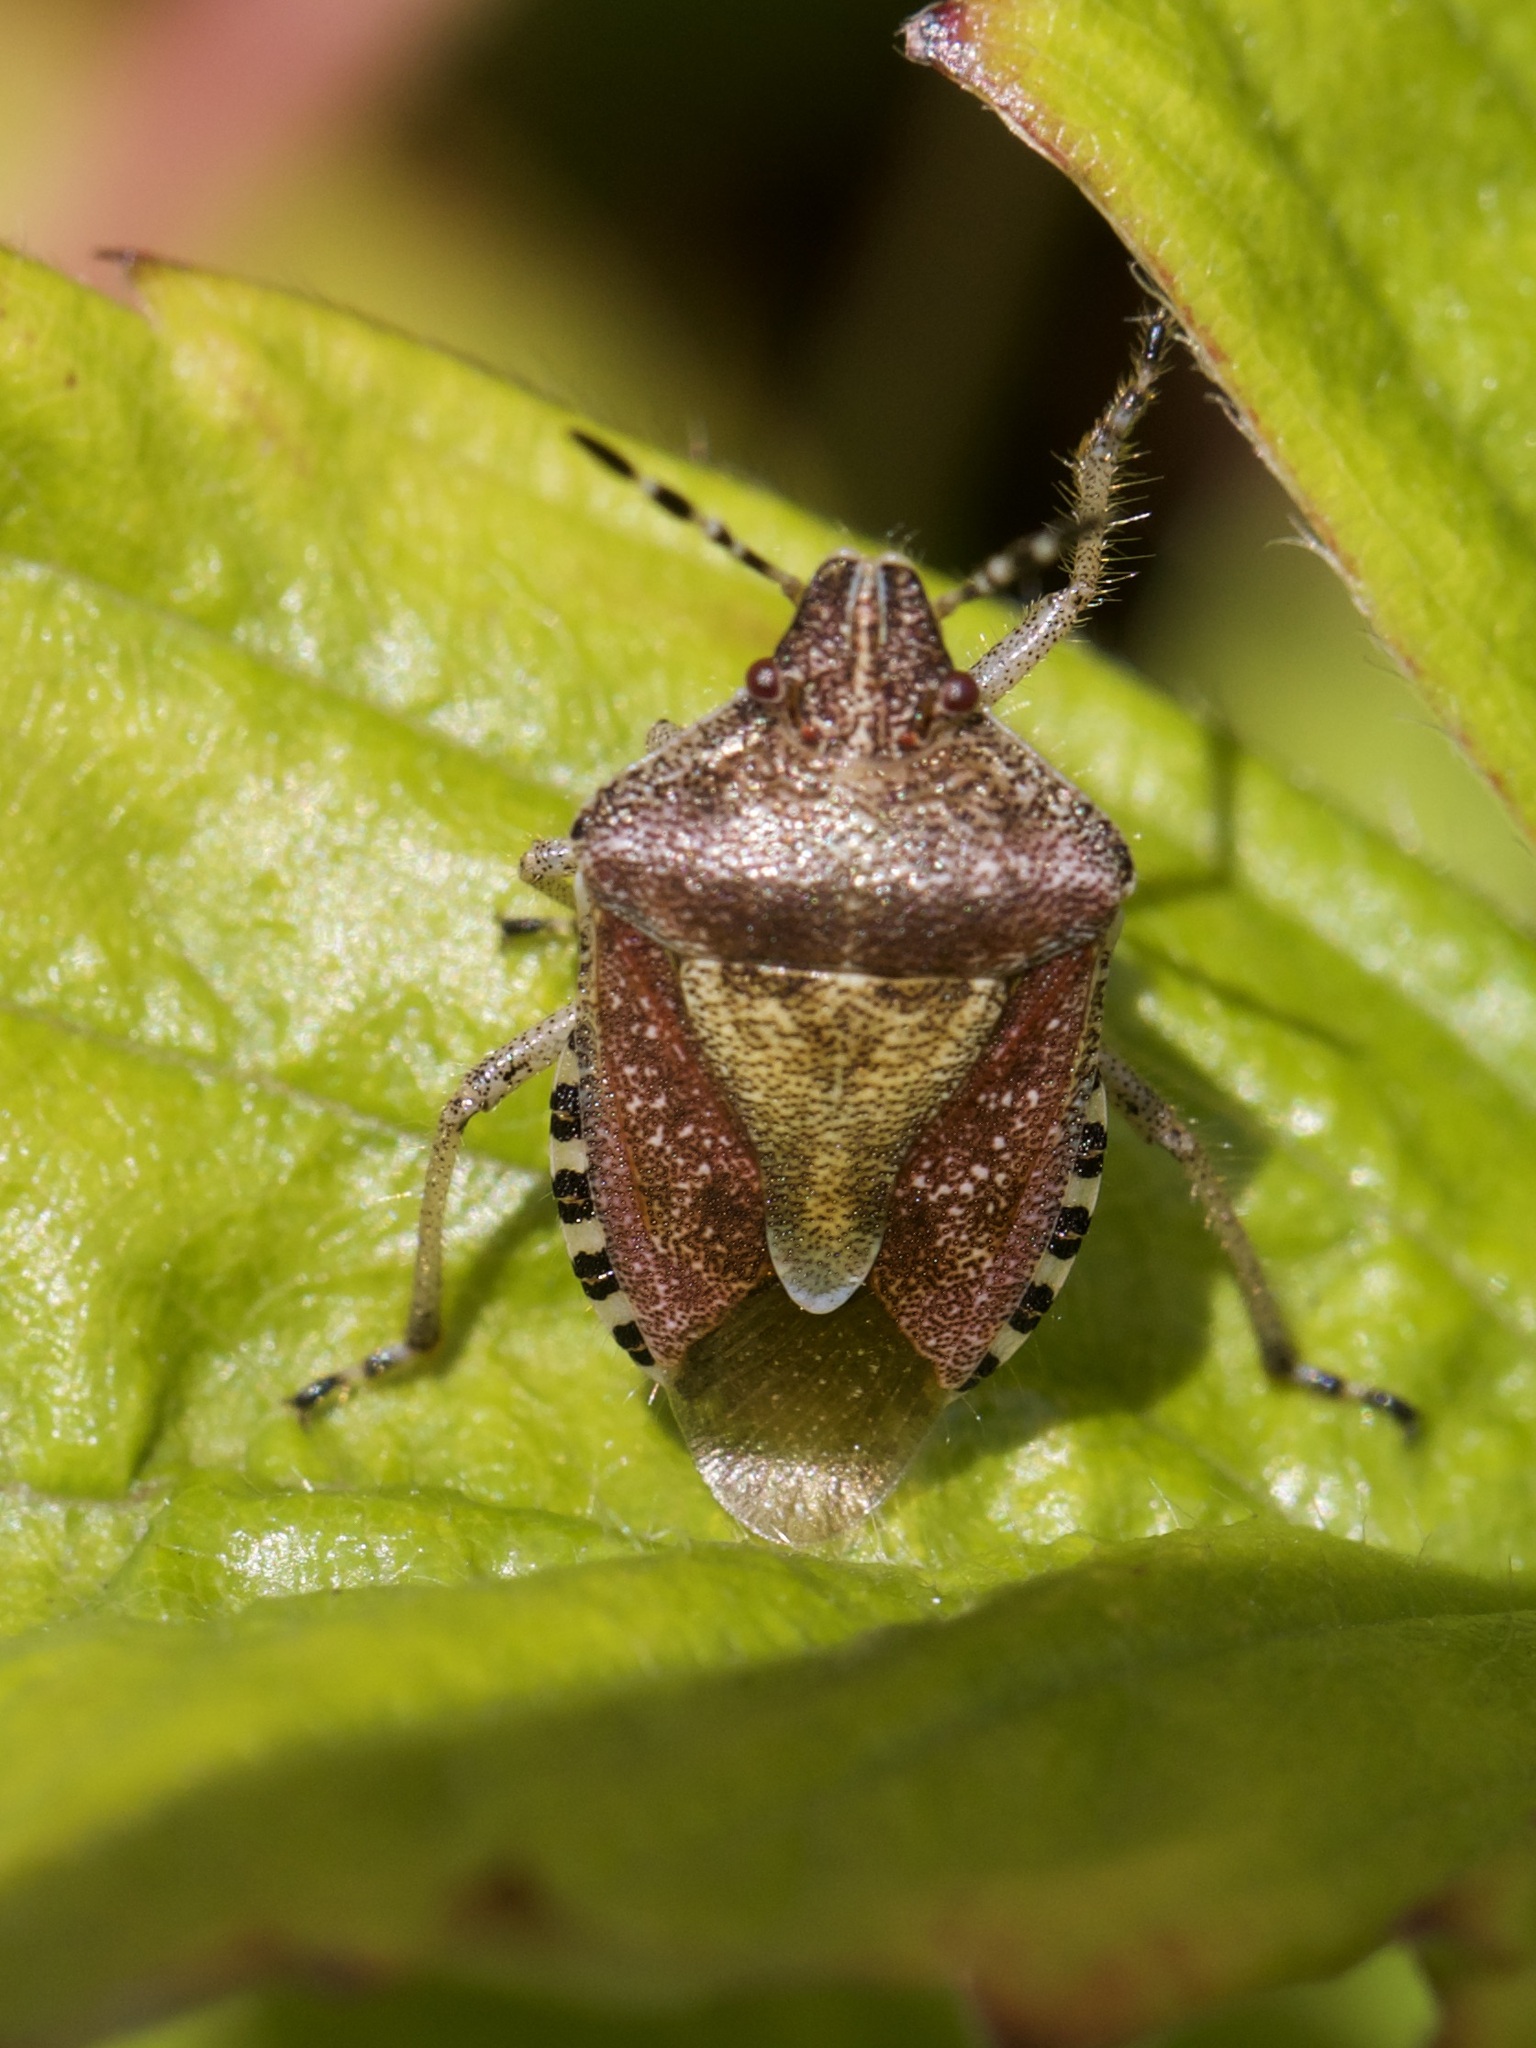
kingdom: Animalia
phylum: Arthropoda
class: Insecta
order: Hemiptera
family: Pentatomidae
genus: Dolycoris
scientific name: Dolycoris baccarum
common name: Sloe bug
